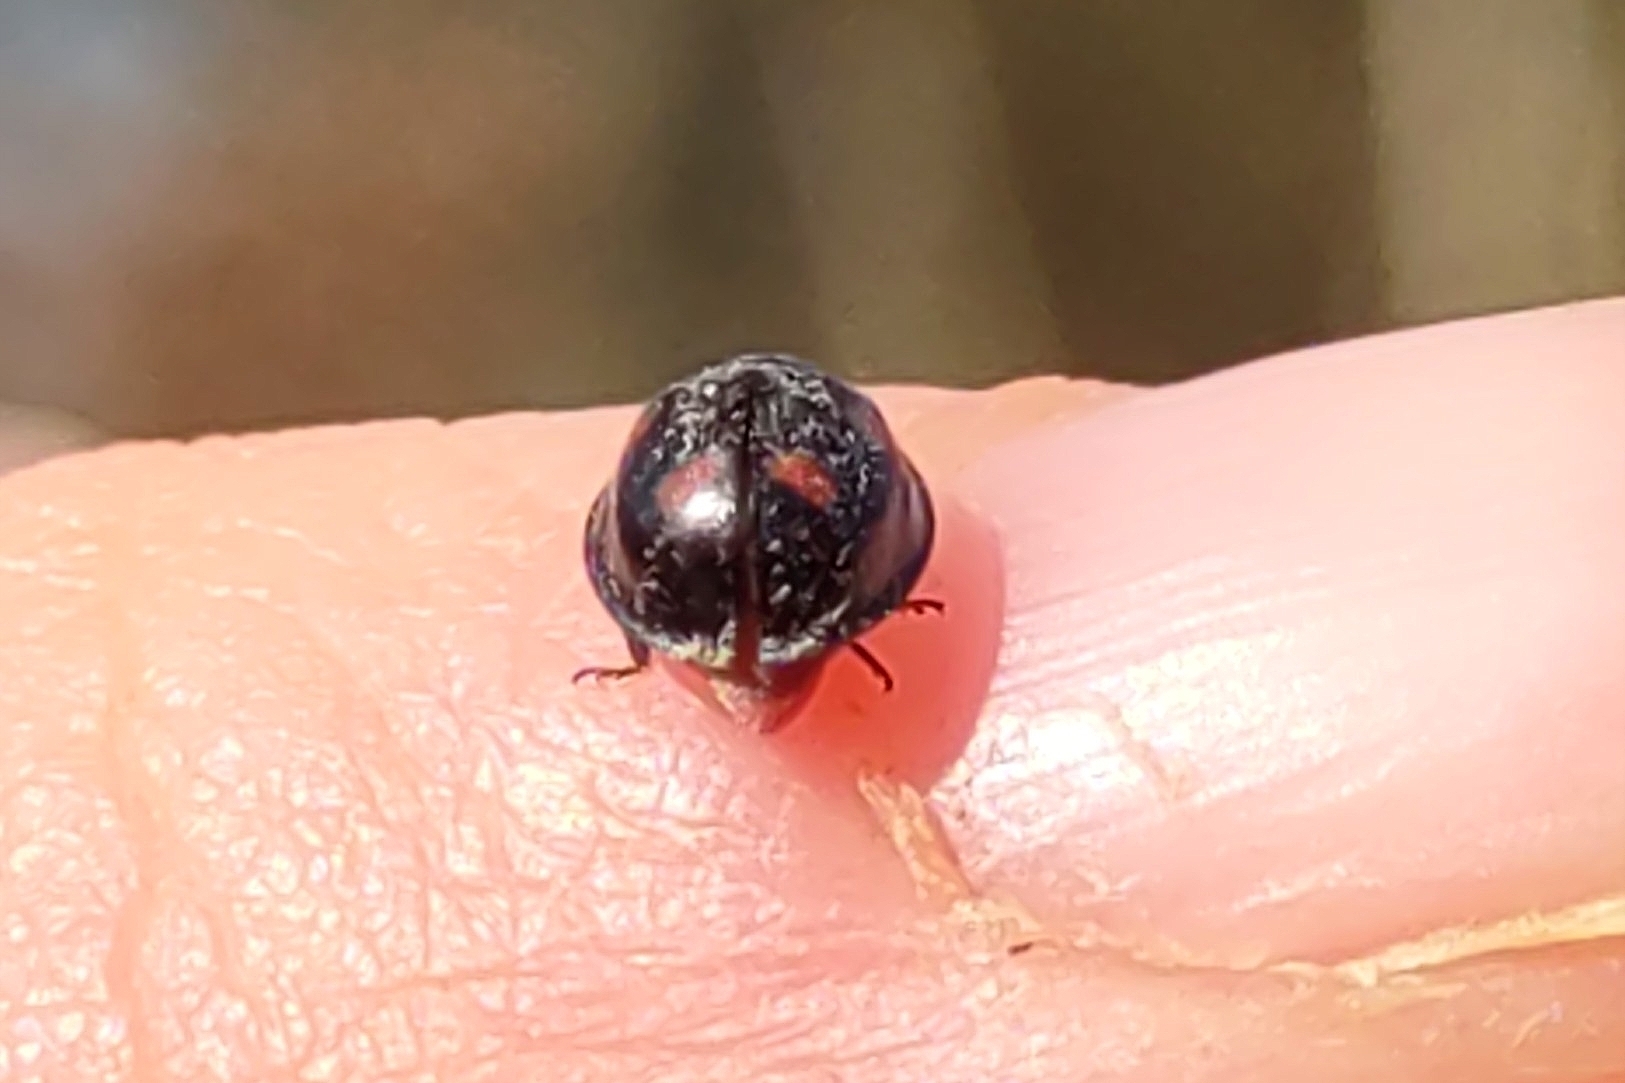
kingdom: Animalia
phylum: Arthropoda
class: Insecta
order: Coleoptera
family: Coccinellidae
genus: Brumus
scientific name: Brumus quadripustulatus
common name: Ladybird beetle
